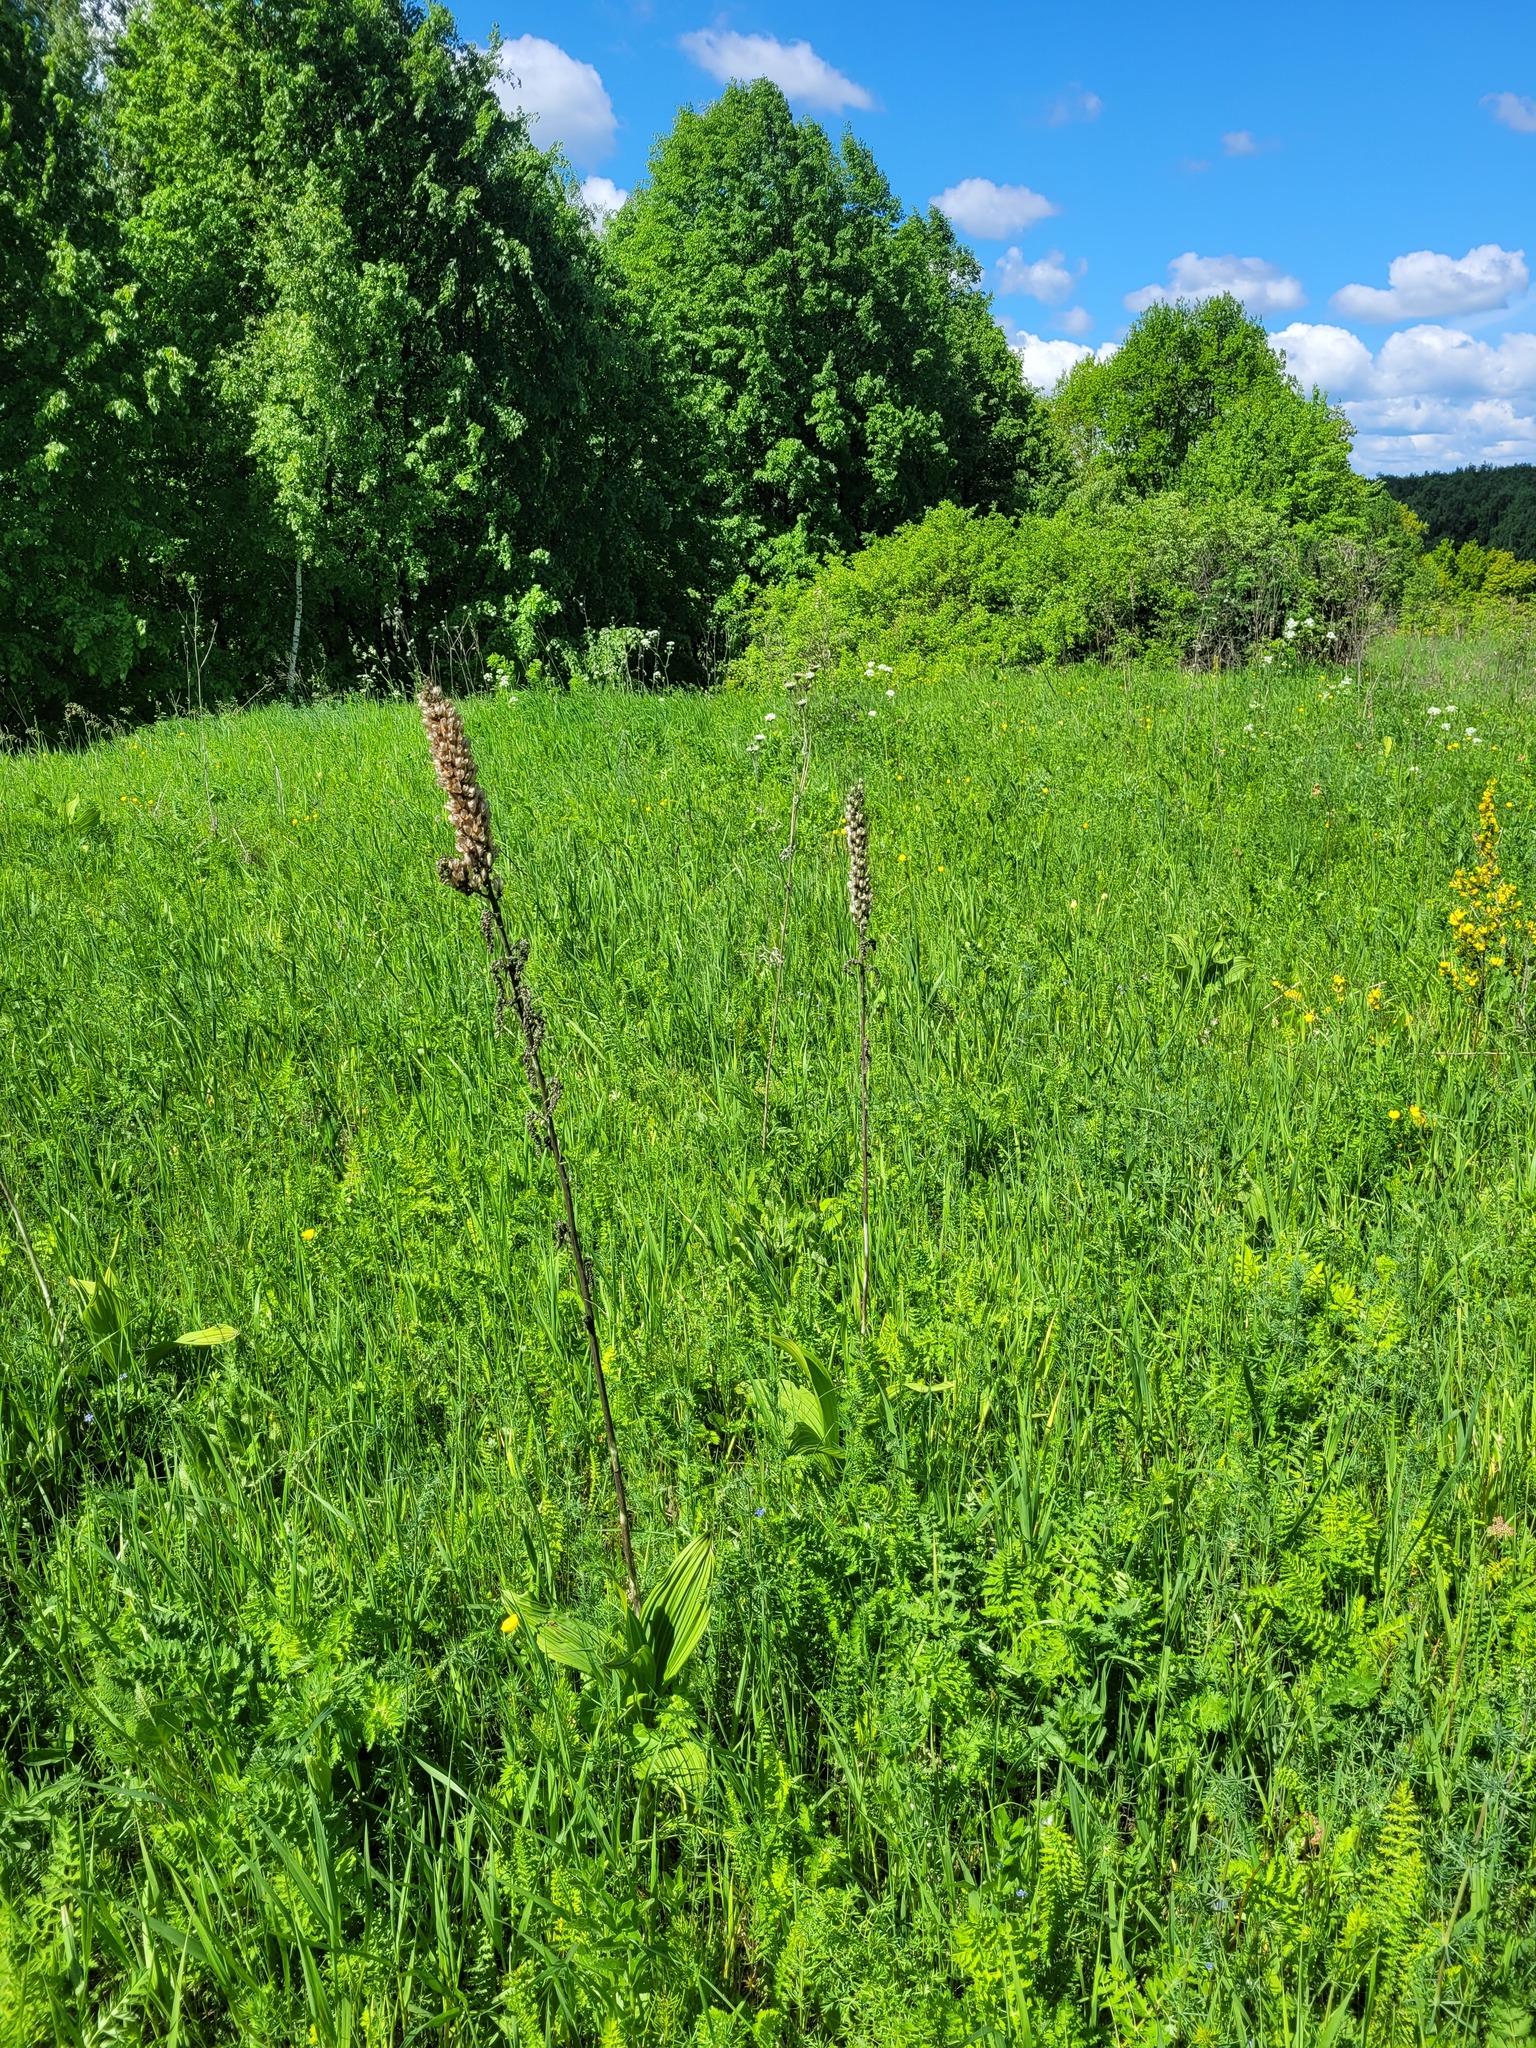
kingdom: Plantae
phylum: Tracheophyta
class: Liliopsida
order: Liliales
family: Melanthiaceae
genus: Veratrum
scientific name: Veratrum nigrum
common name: Black veratrum
